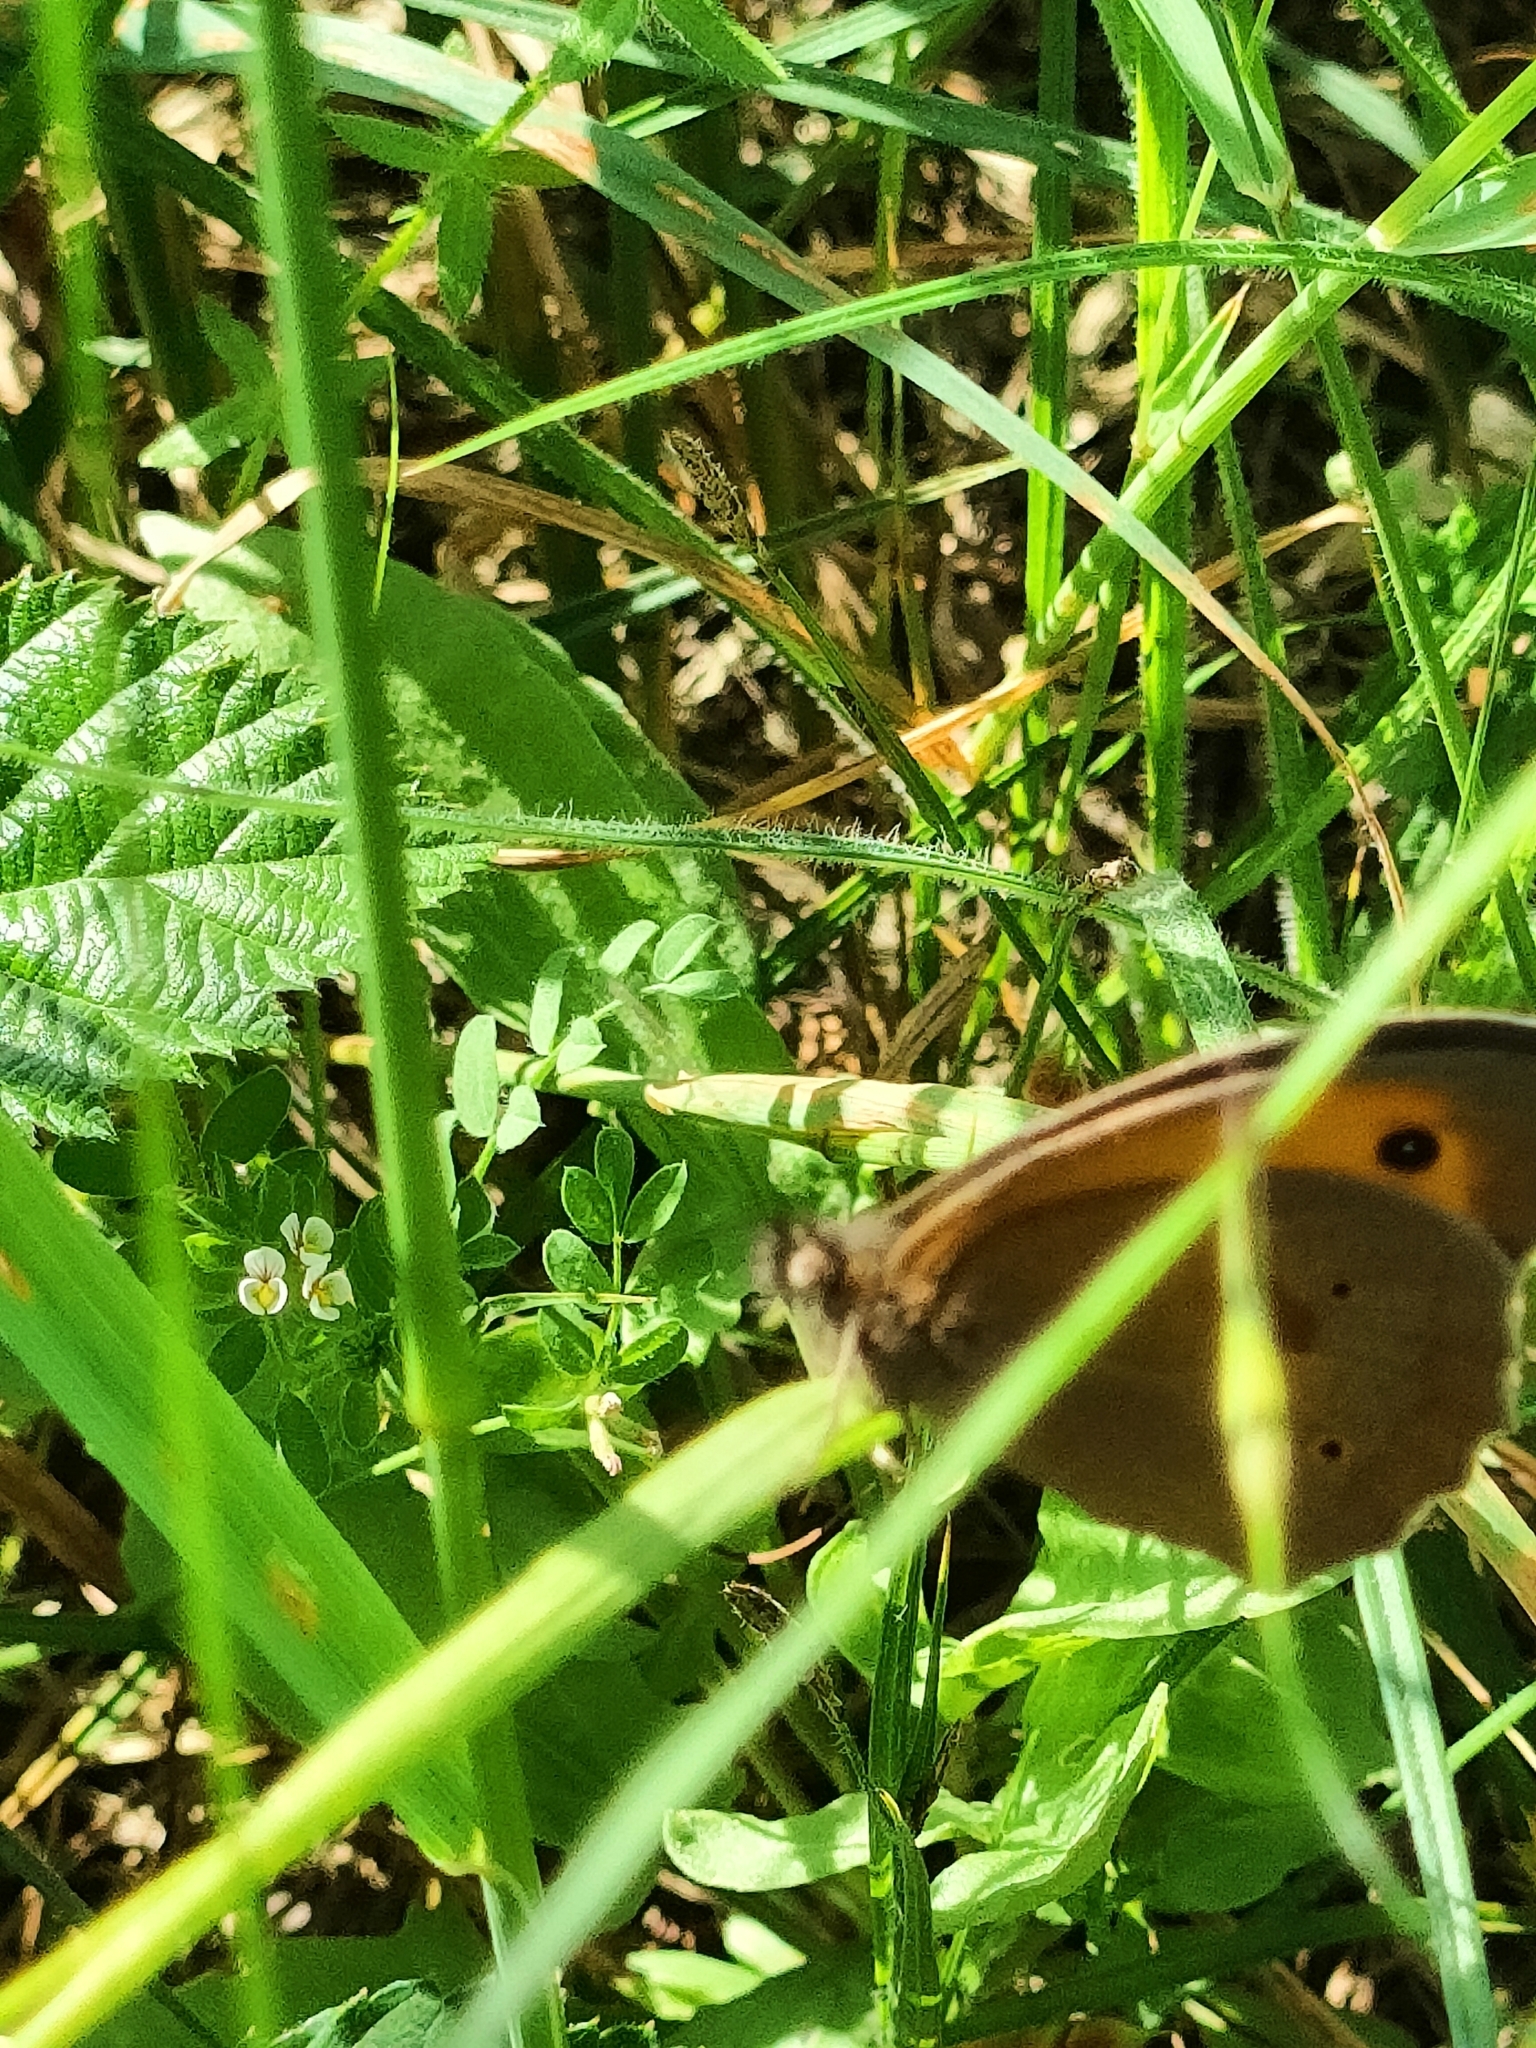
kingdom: Animalia
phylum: Arthropoda
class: Insecta
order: Lepidoptera
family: Nymphalidae
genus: Maniola
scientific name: Maniola jurtina
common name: Meadow brown
